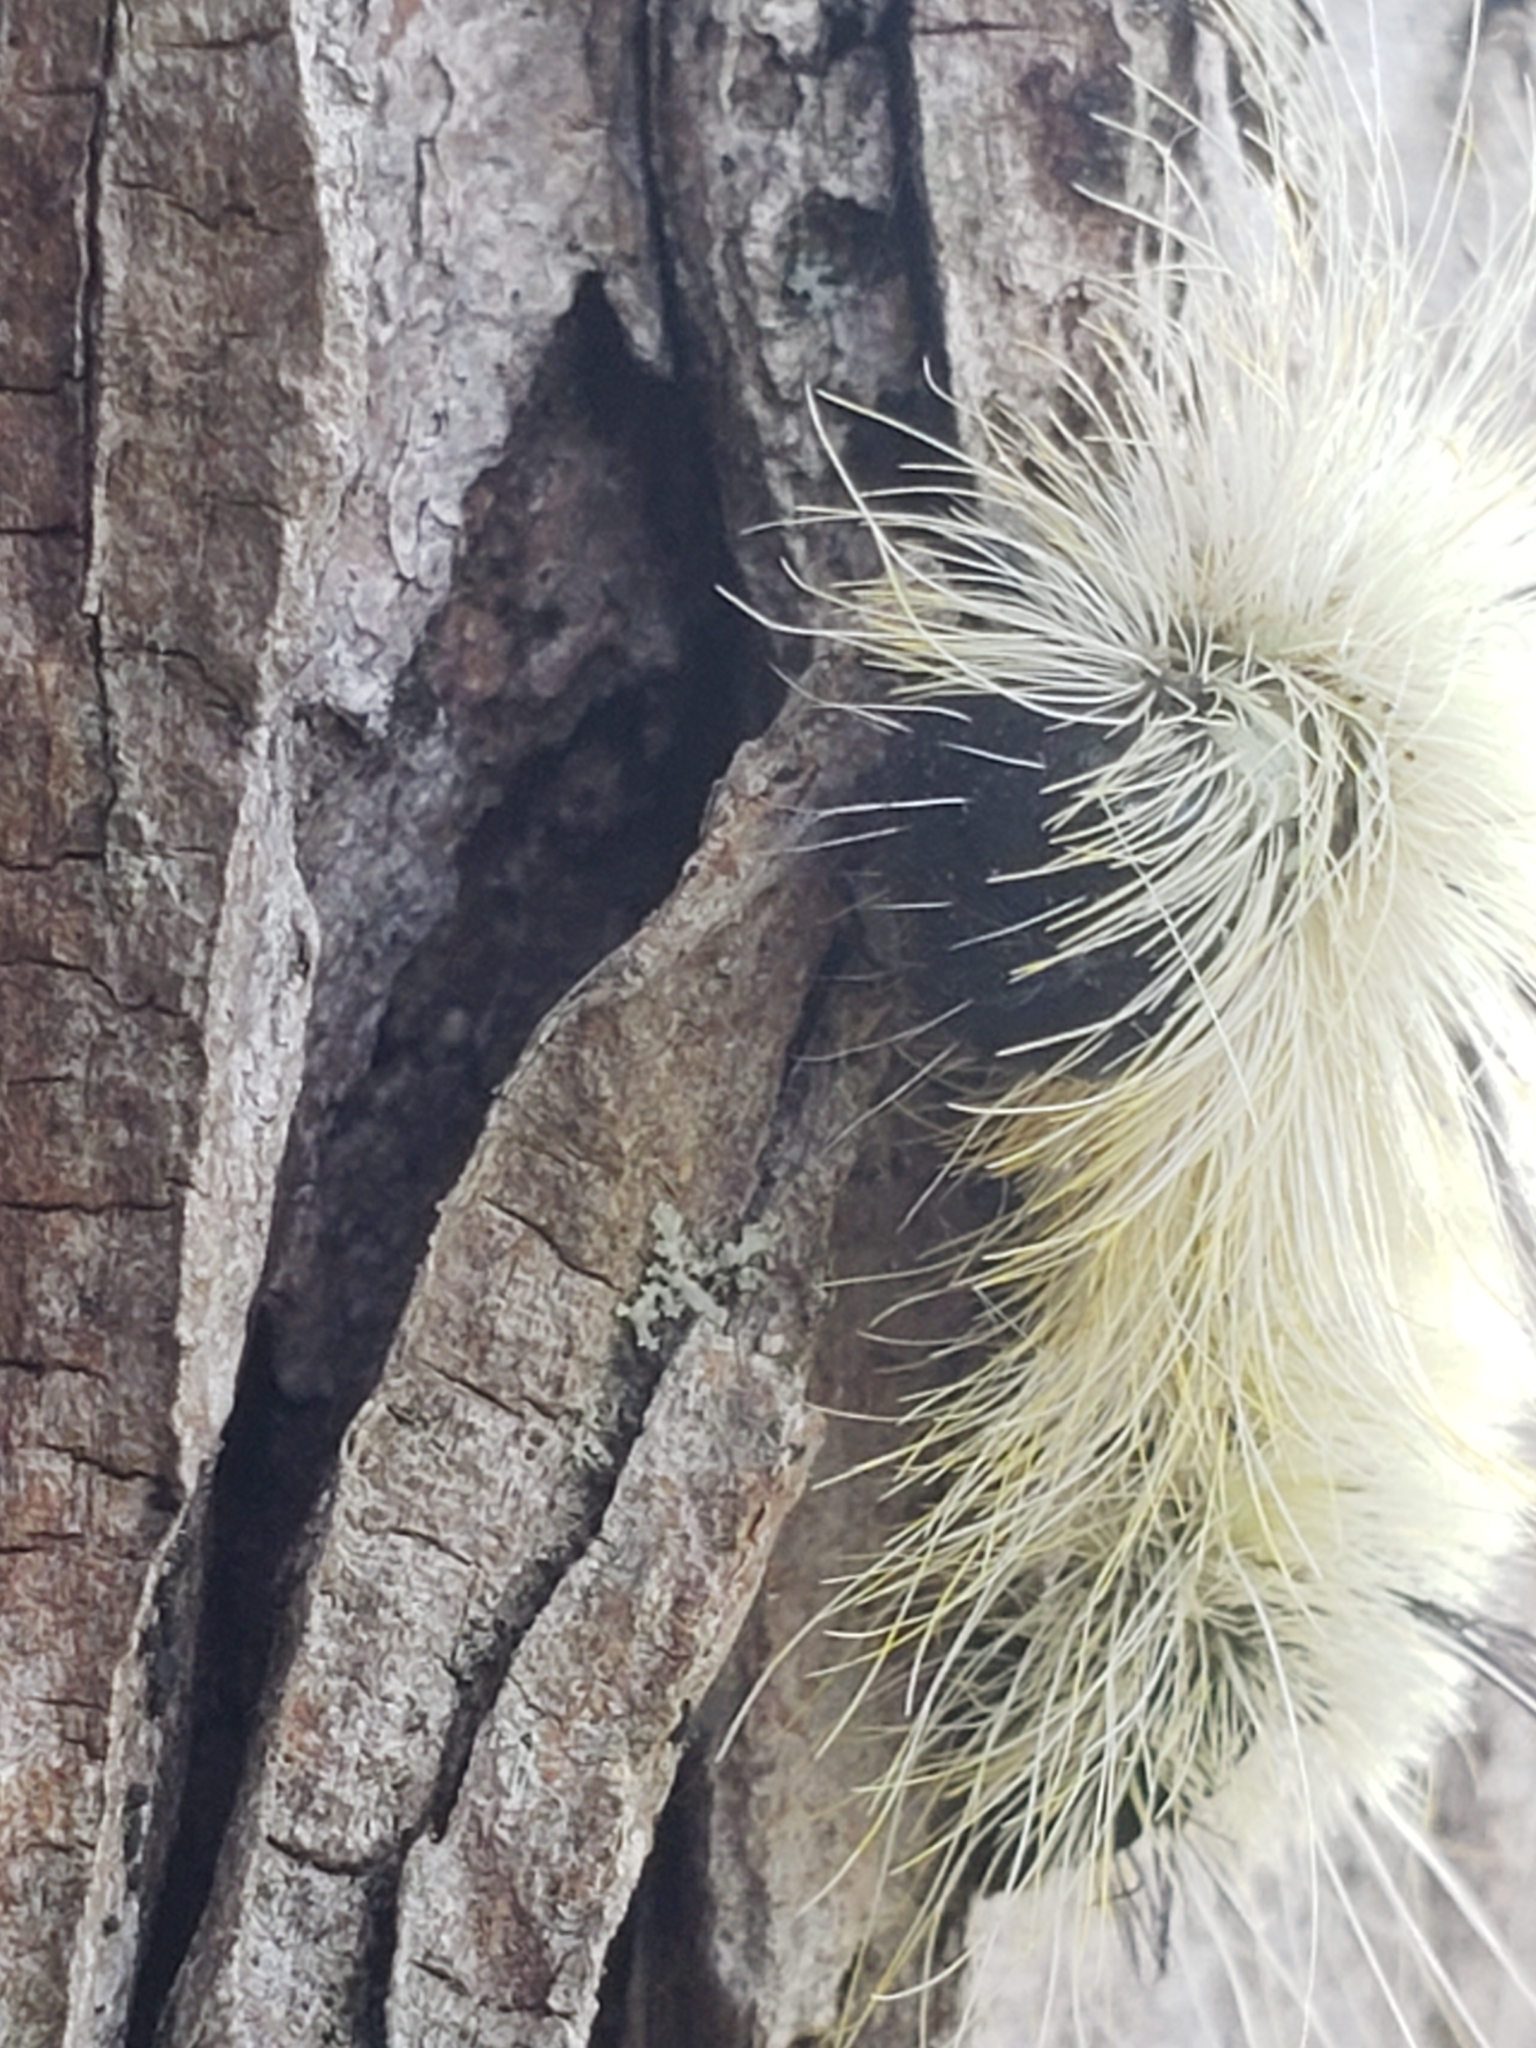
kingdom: Animalia
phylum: Arthropoda
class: Insecta
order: Lepidoptera
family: Noctuidae
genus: Acronicta
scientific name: Acronicta americana
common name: American dagger
